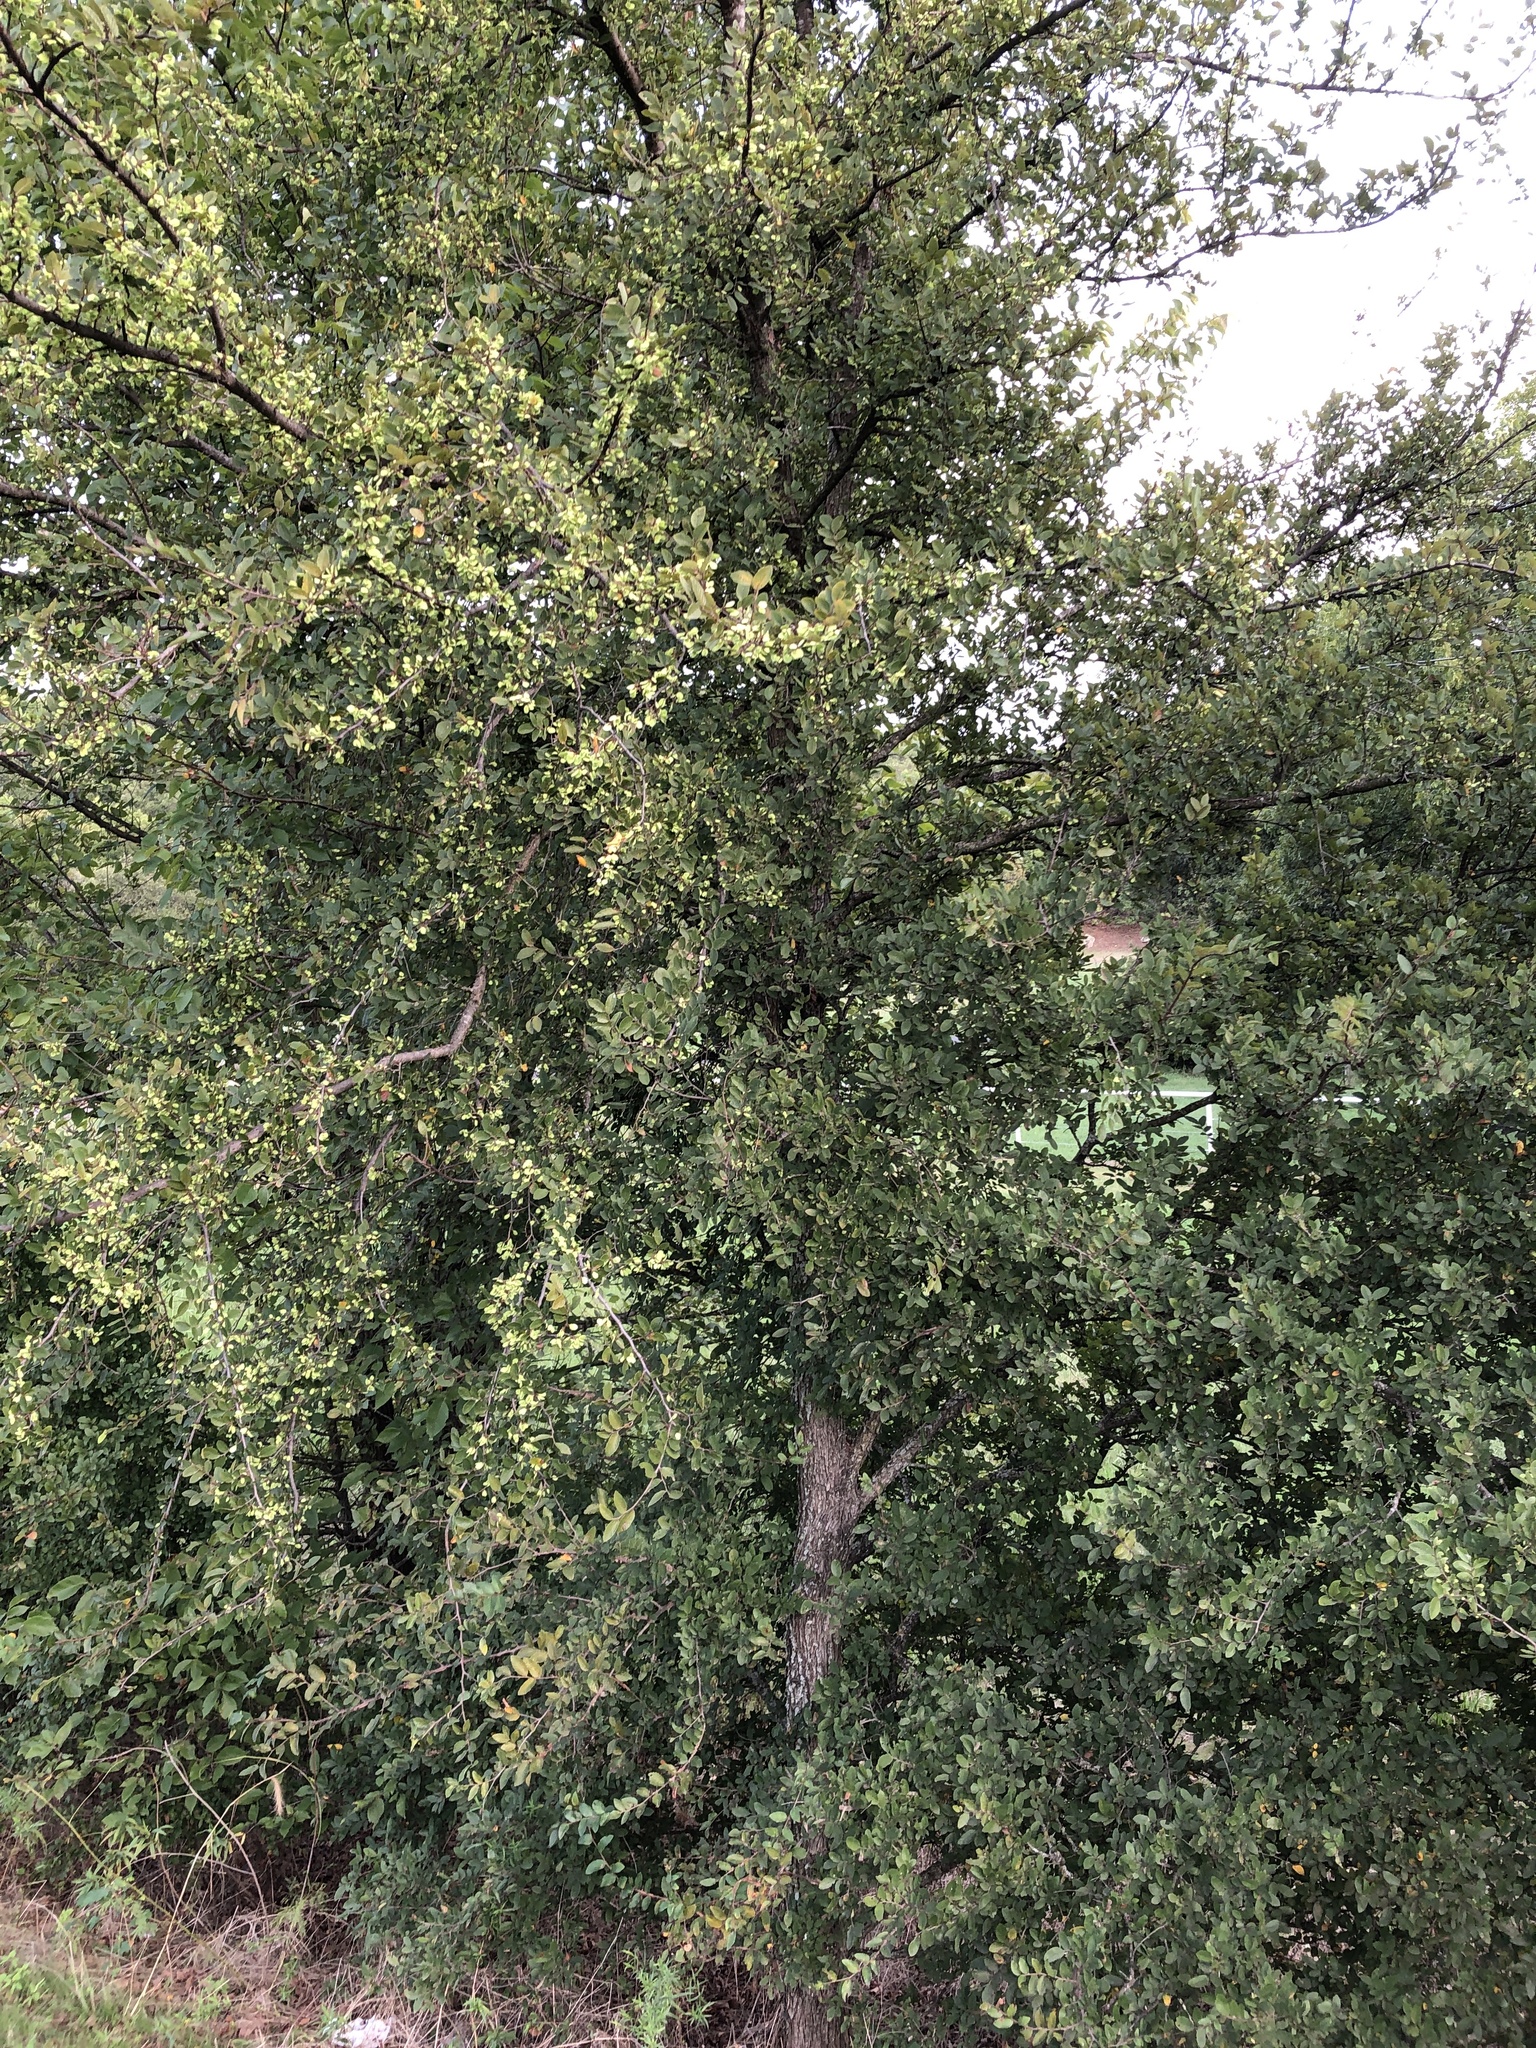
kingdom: Plantae
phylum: Tracheophyta
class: Magnoliopsida
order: Rosales
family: Ulmaceae
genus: Ulmus
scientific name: Ulmus crassifolia
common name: Basket elm
